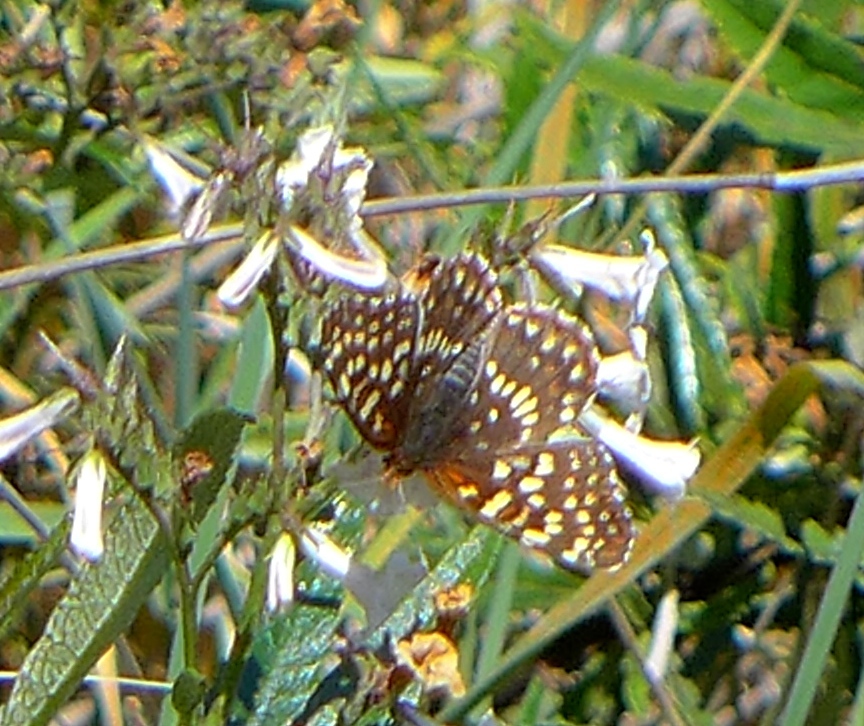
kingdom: Animalia
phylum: Arthropoda
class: Insecta
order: Lepidoptera
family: Nymphalidae
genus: Chlosyne
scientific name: Chlosyne palla
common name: Northern checkerspot
